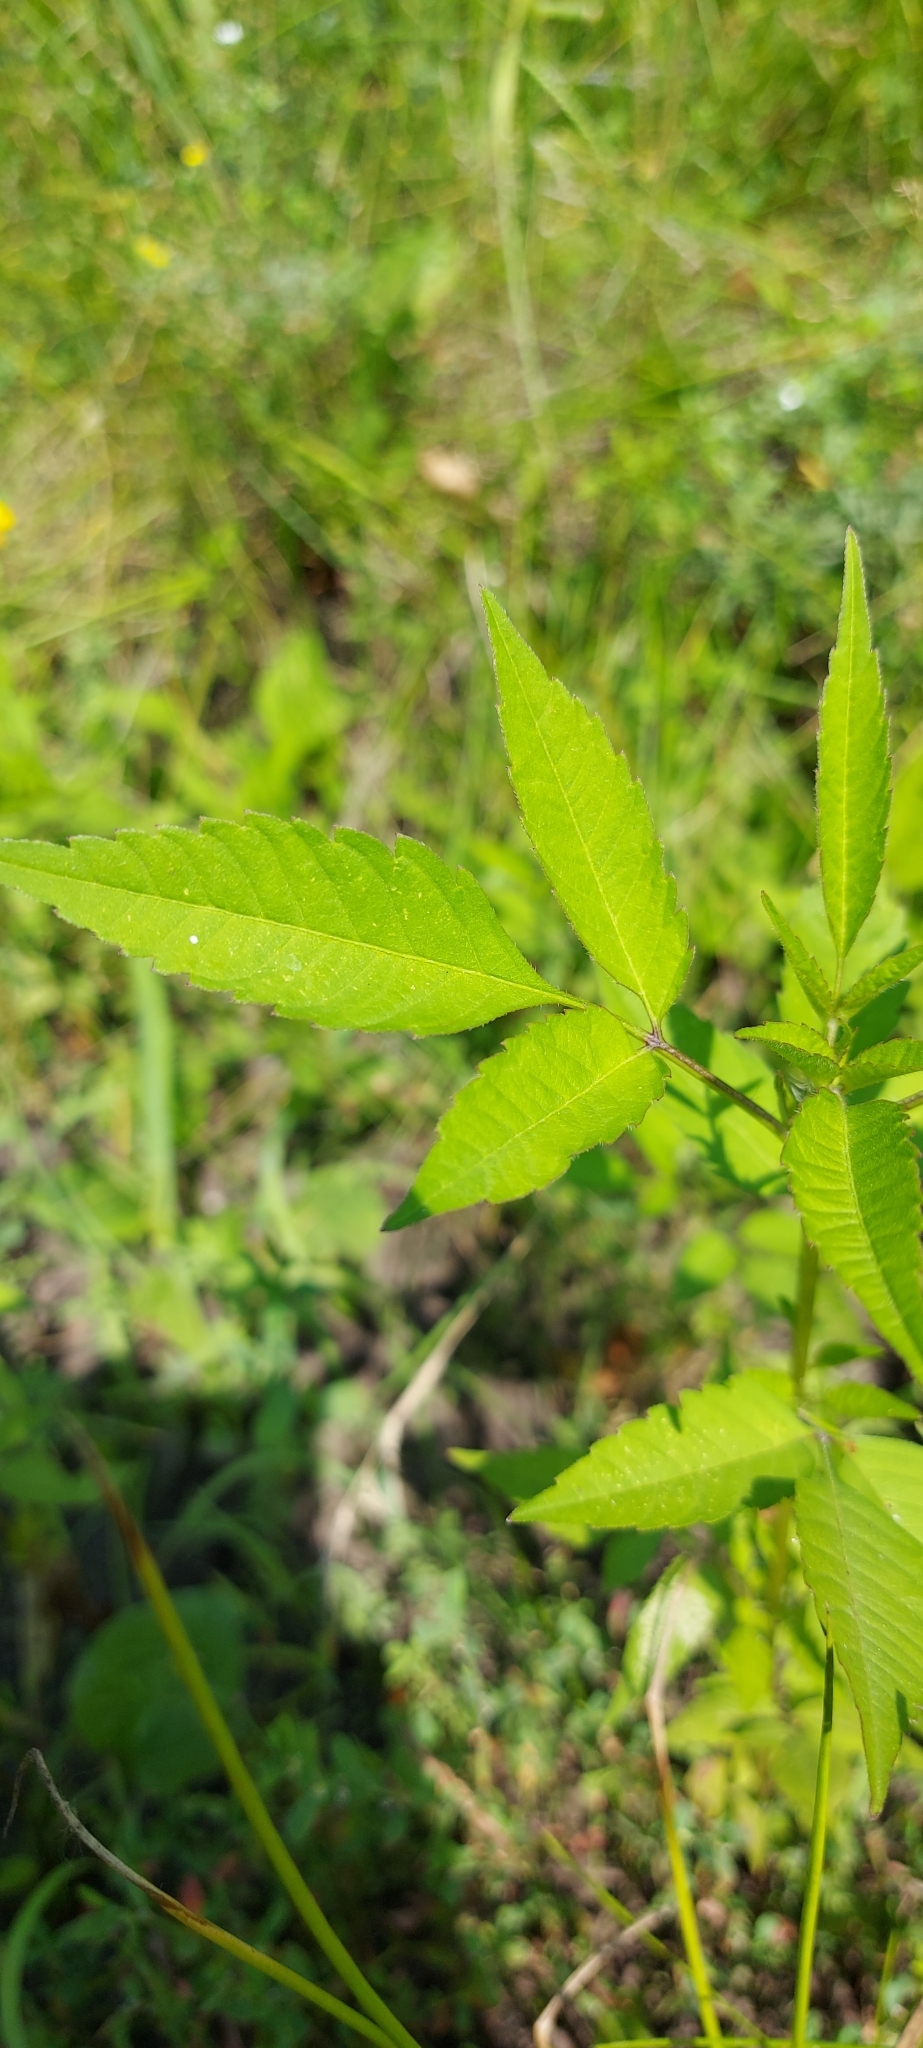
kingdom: Plantae
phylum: Tracheophyta
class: Magnoliopsida
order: Asterales
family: Asteraceae
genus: Bidens
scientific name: Bidens frondosa
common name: Beggarticks
